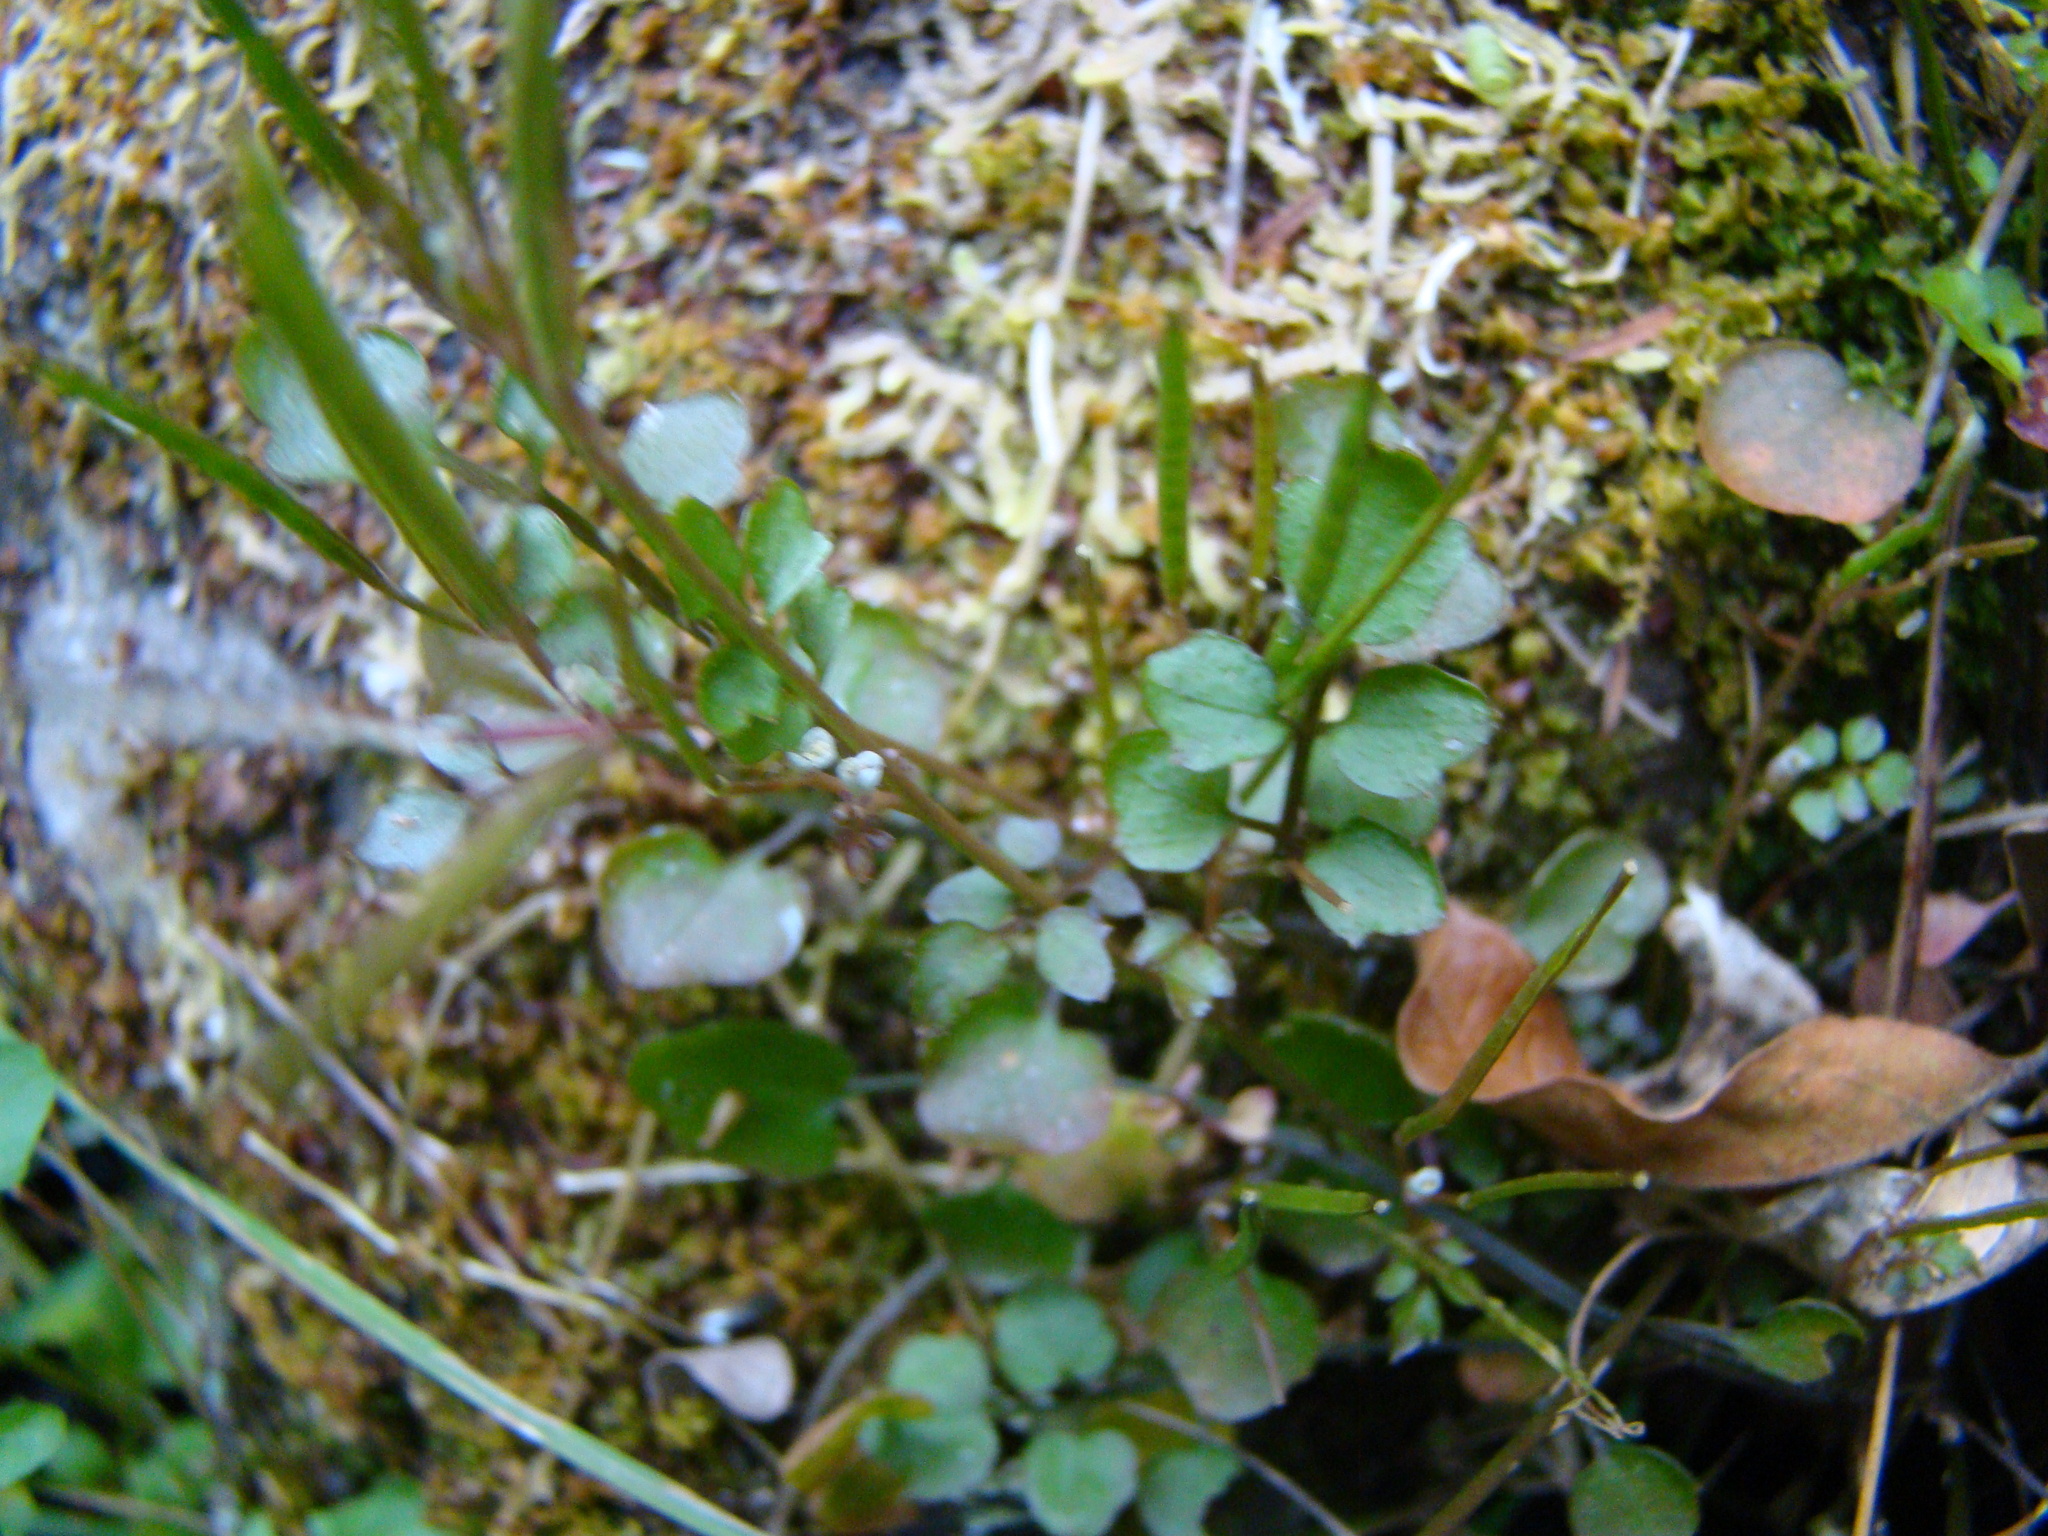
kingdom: Plantae
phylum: Tracheophyta
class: Magnoliopsida
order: Brassicales
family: Brassicaceae
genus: Cardamine
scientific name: Cardamine dolichostyla
